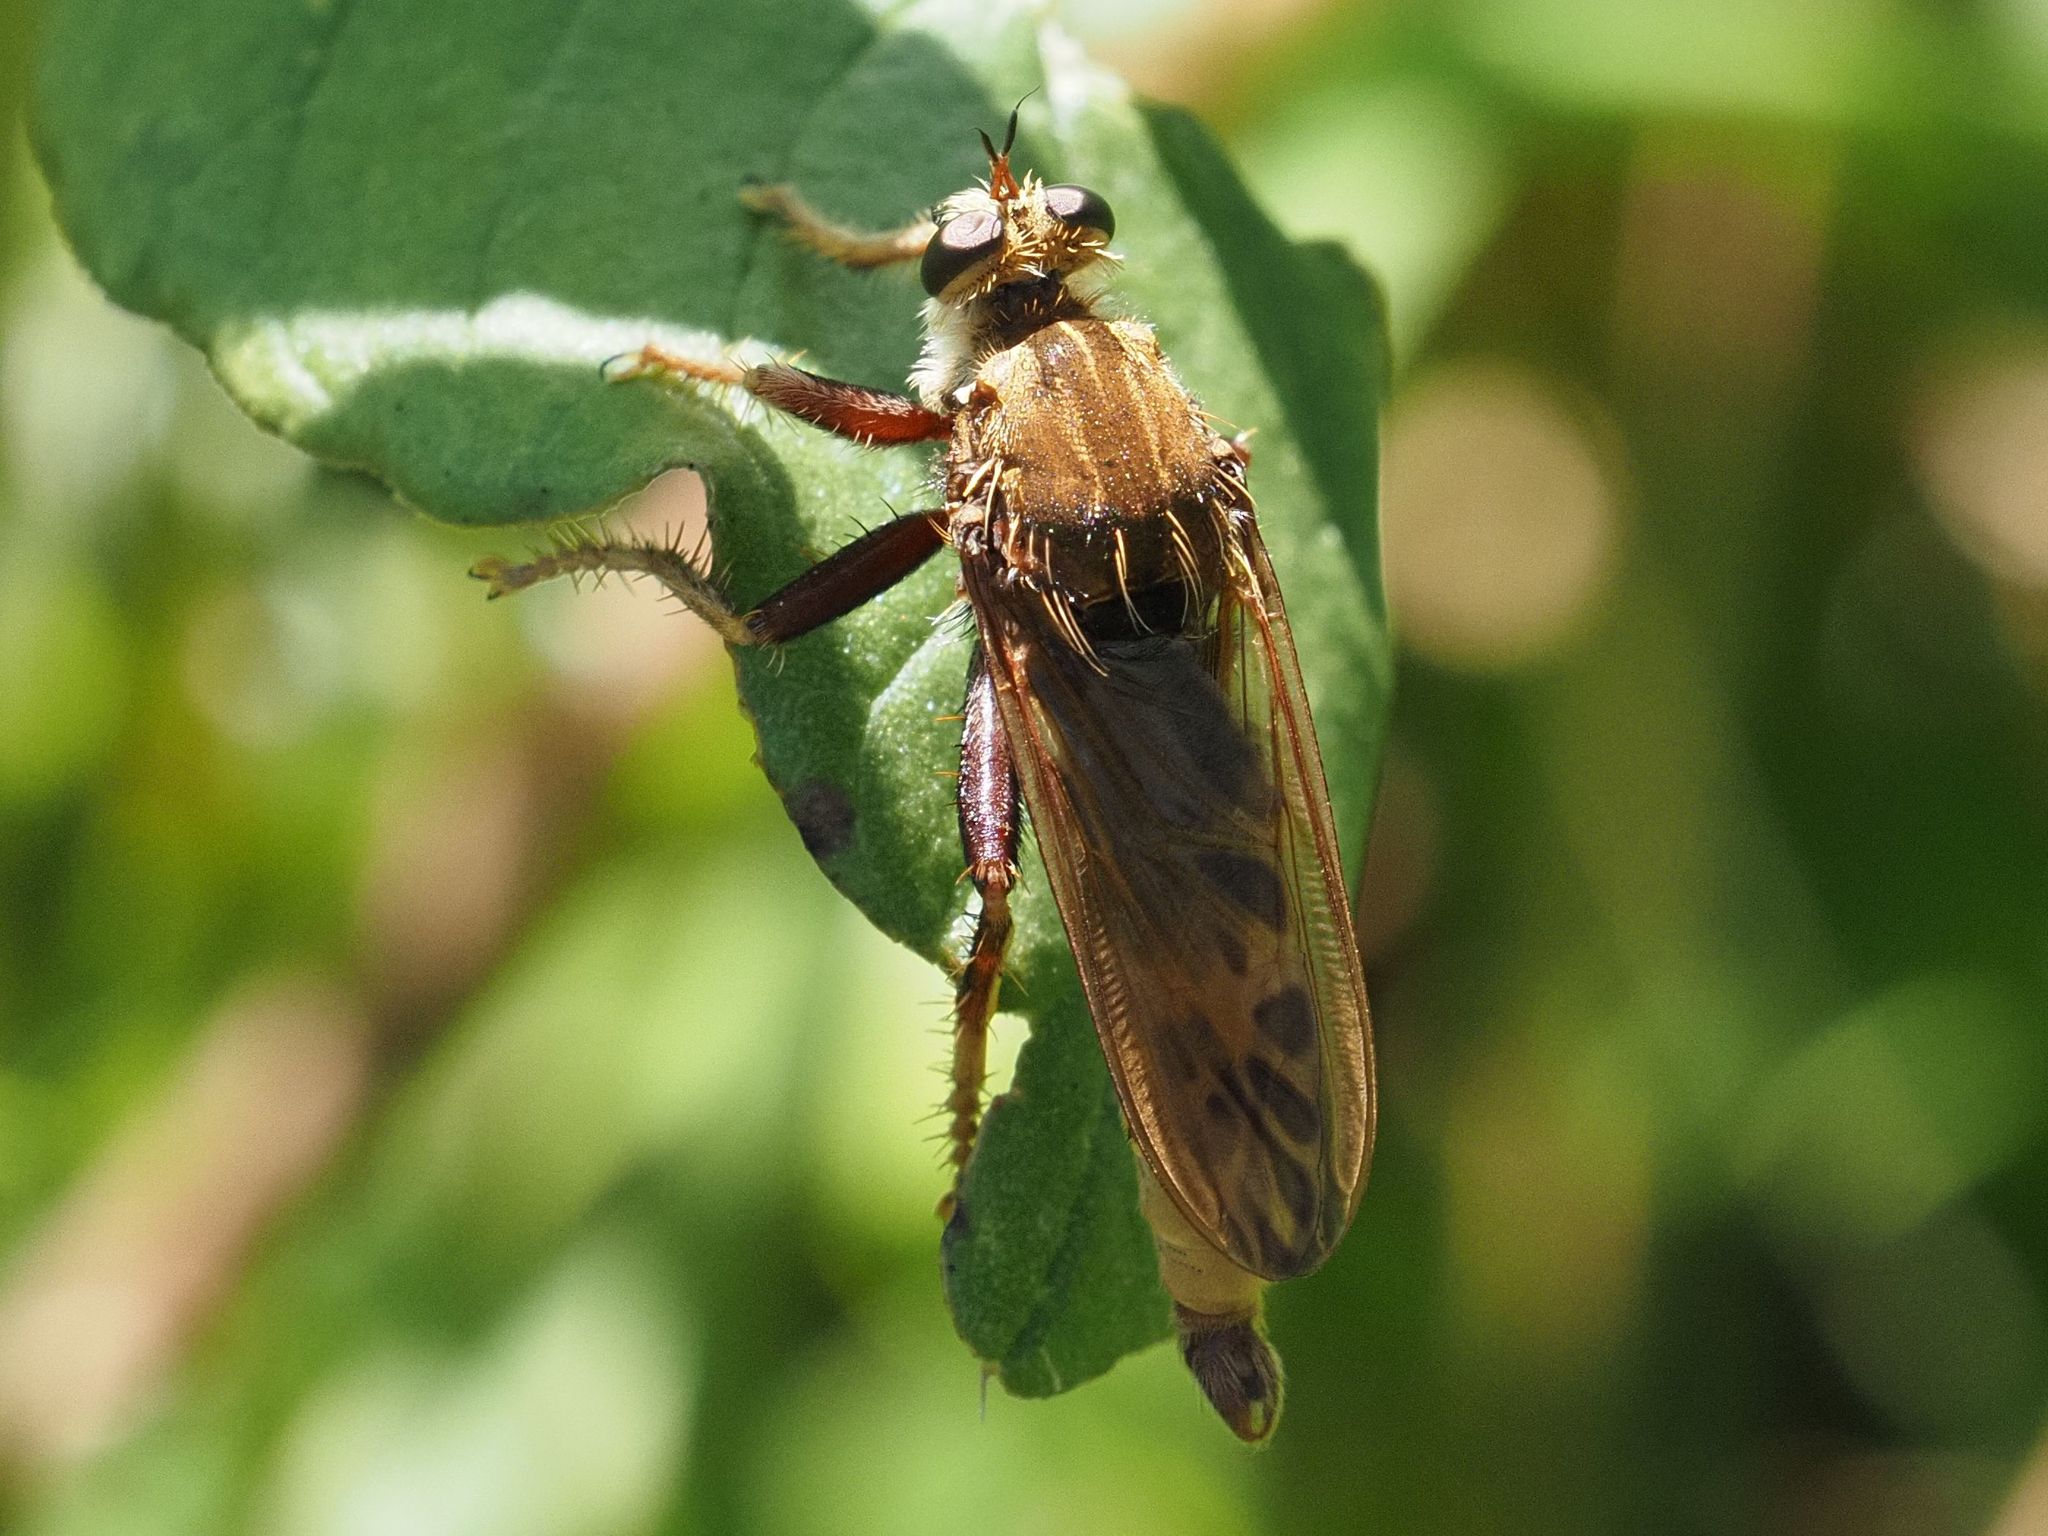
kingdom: Animalia
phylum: Arthropoda
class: Insecta
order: Diptera
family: Asilidae
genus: Asilus
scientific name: Asilus crabroniformis
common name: Hornet robberfly
